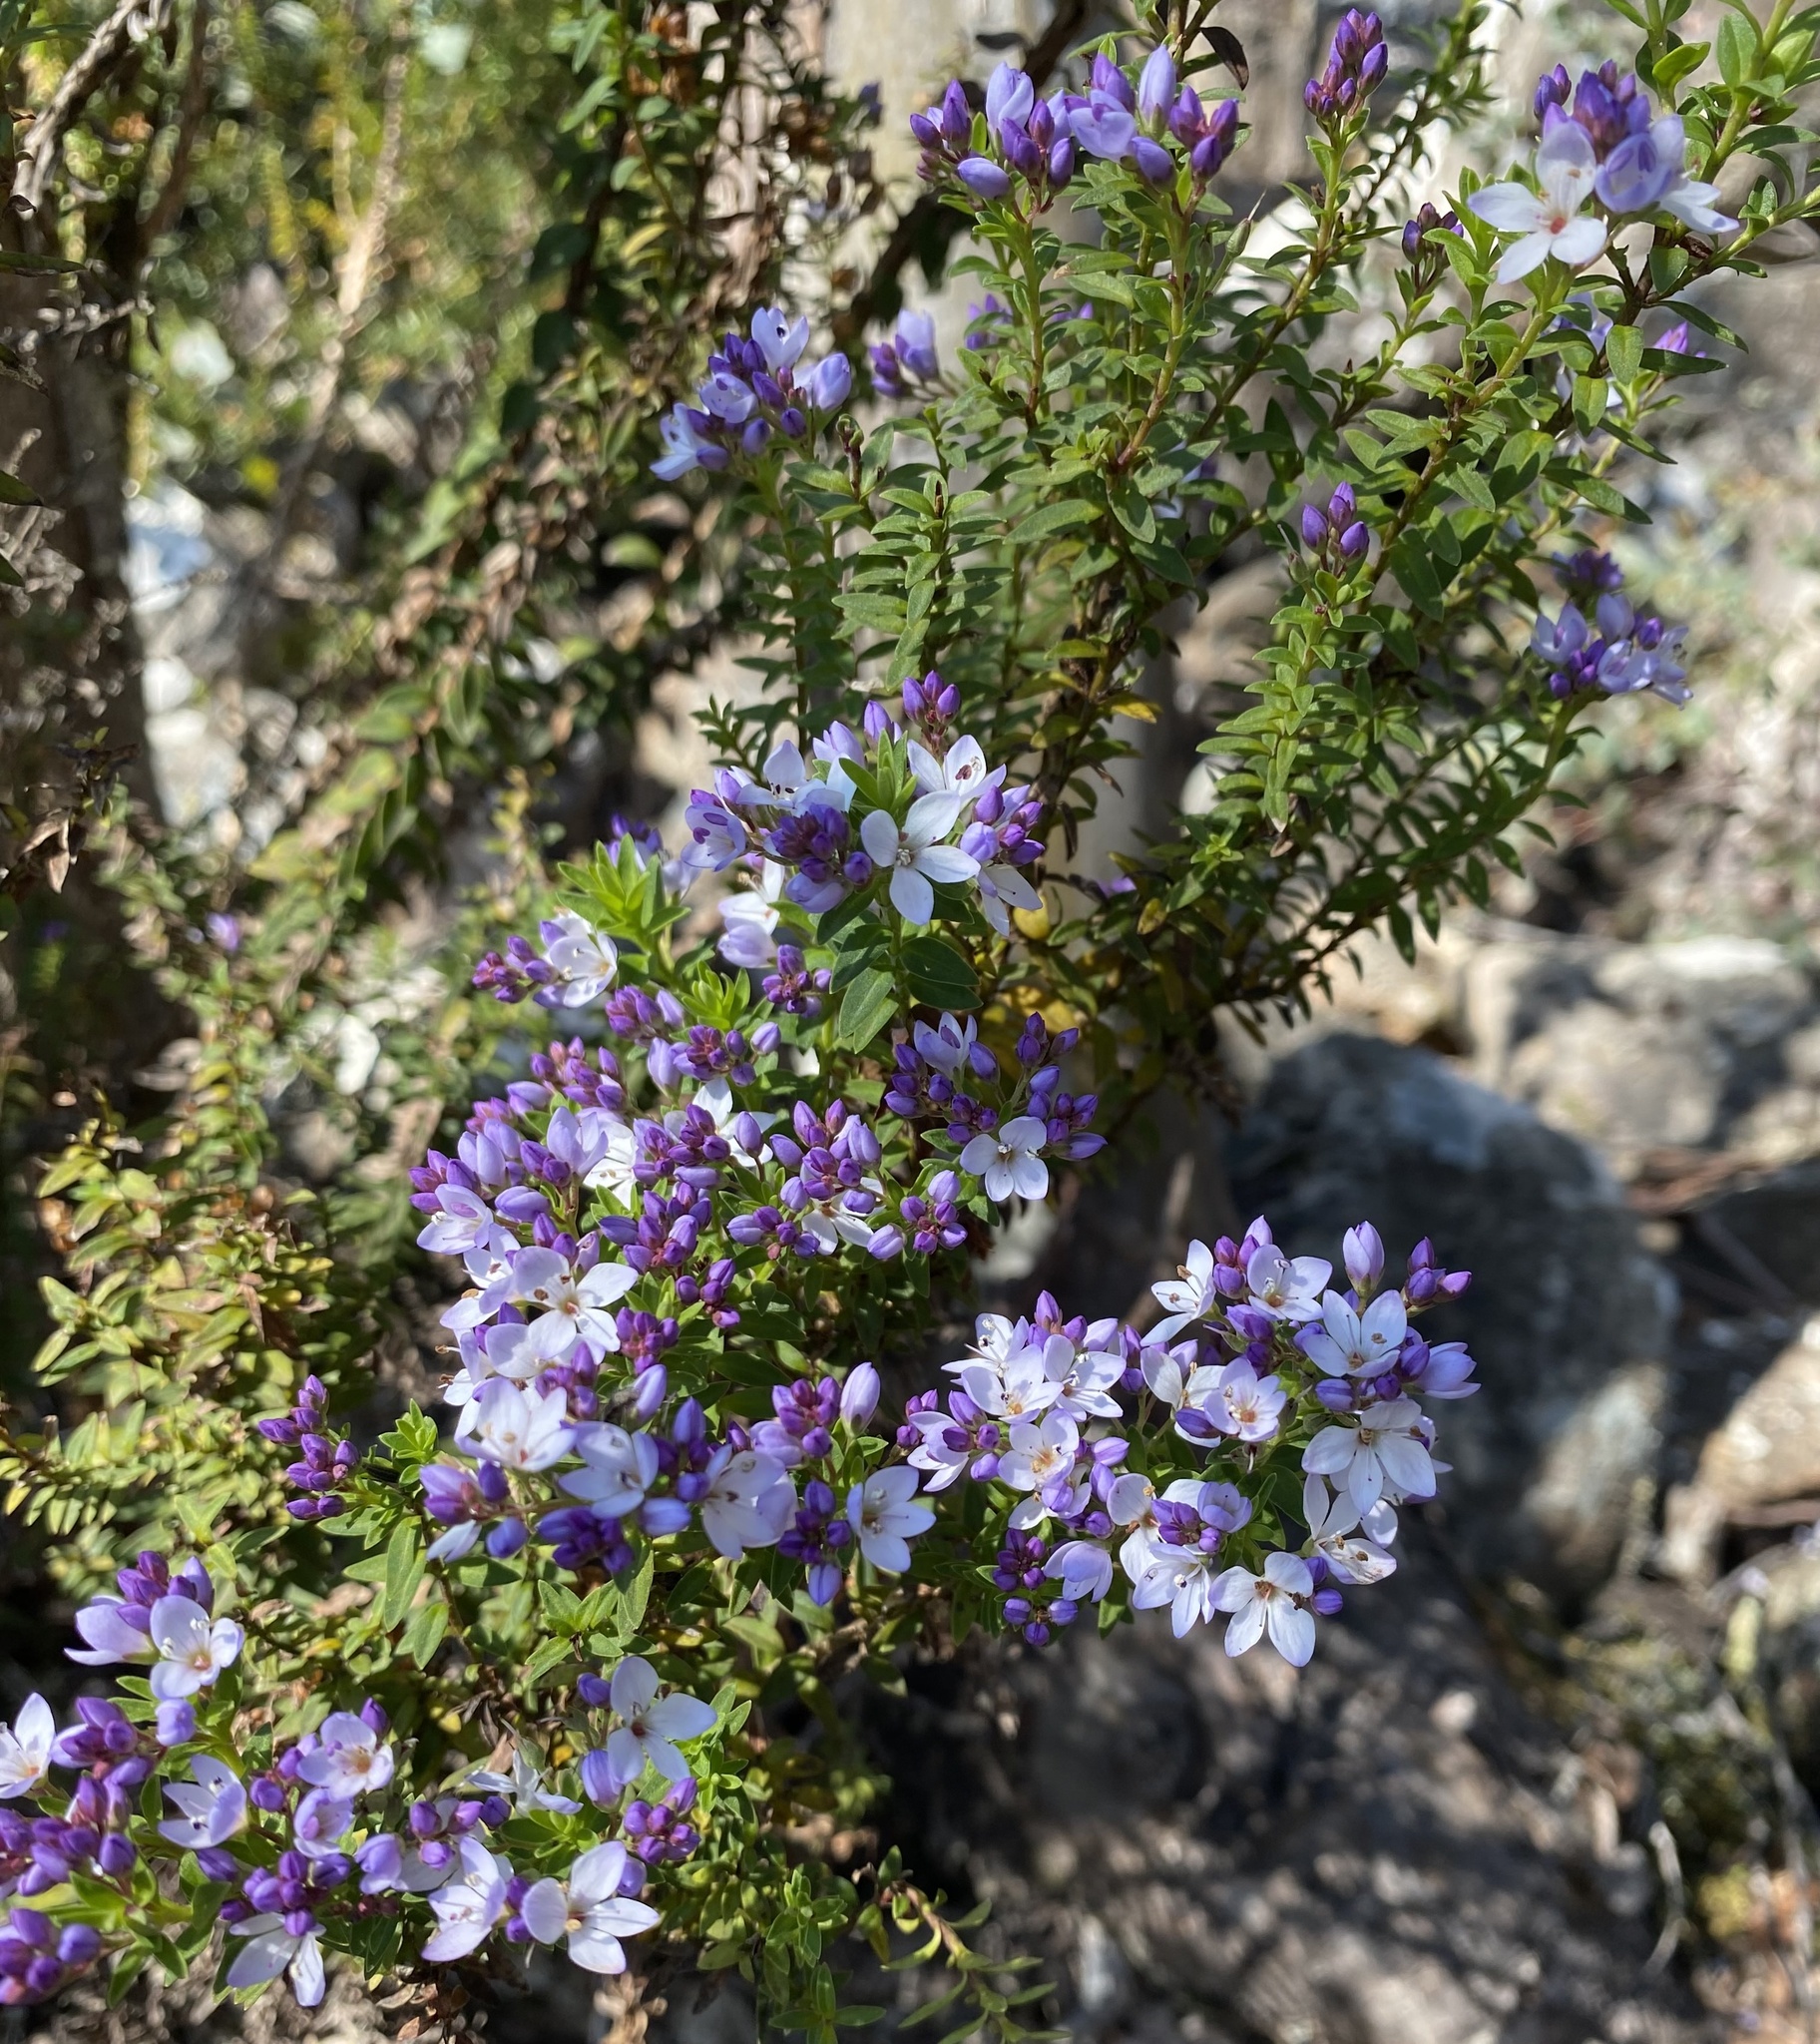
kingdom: Plantae
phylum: Tracheophyta
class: Magnoliopsida
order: Lamiales
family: Plantaginaceae
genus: Veronica
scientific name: Veronica formosa
